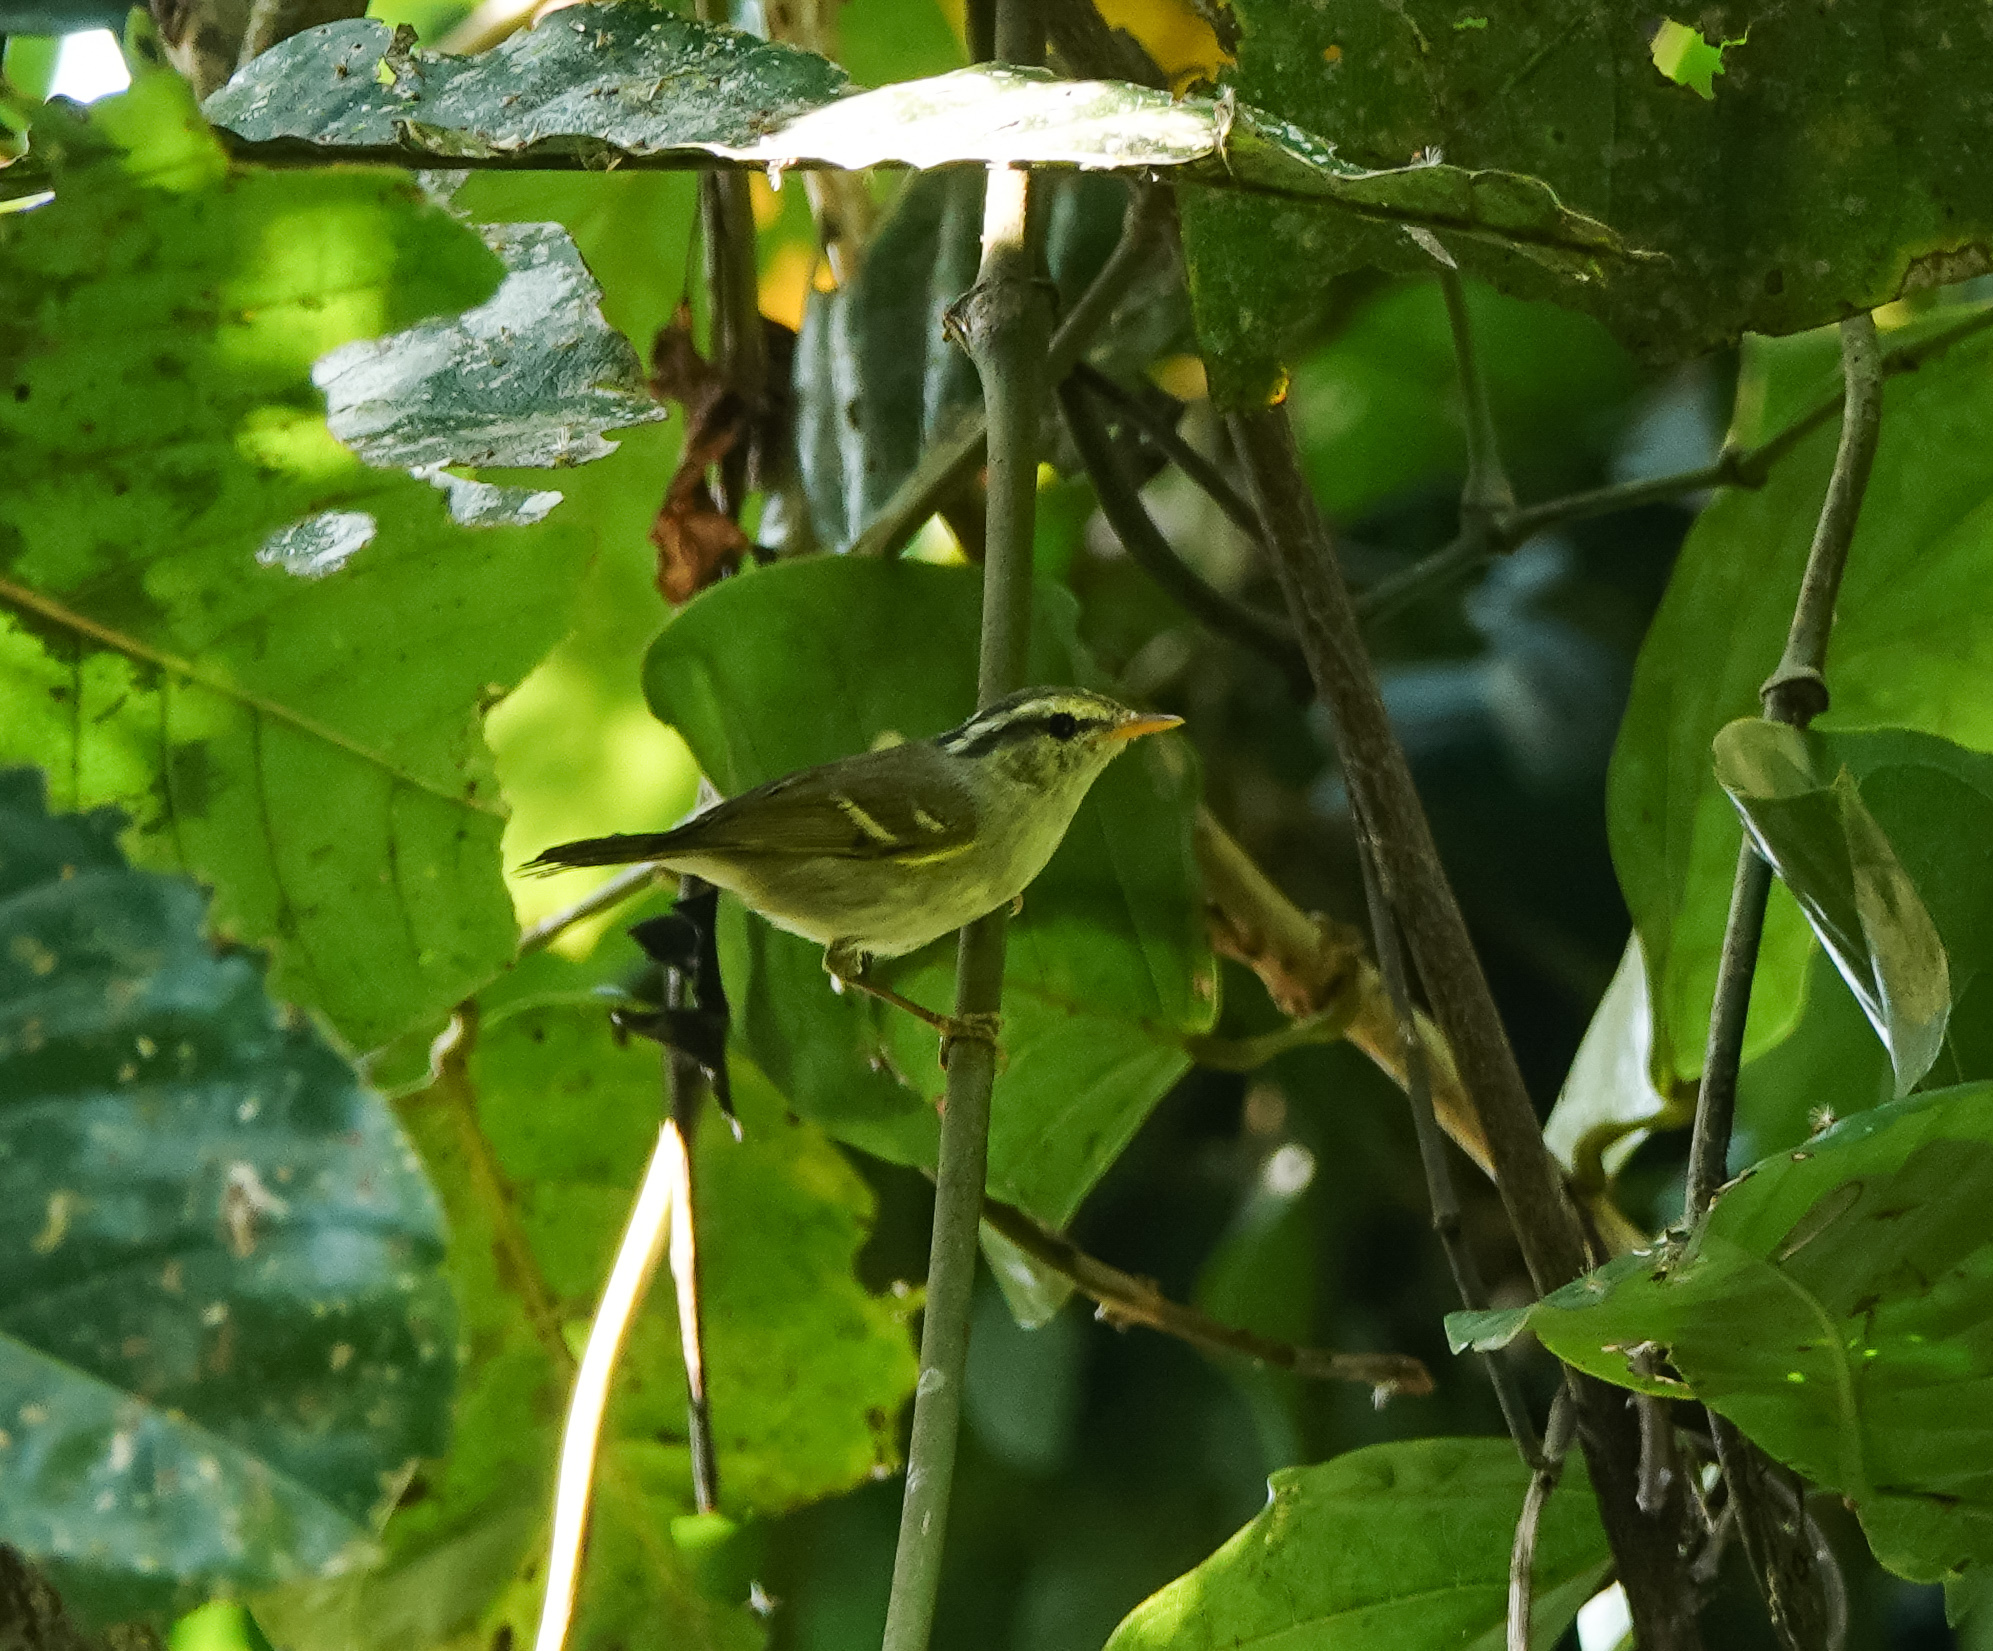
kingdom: Animalia
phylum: Chordata
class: Aves
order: Passeriformes
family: Phylloscopidae
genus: Phylloscopus
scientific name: Phylloscopus reguloides
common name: Blyth's leaf warbler
